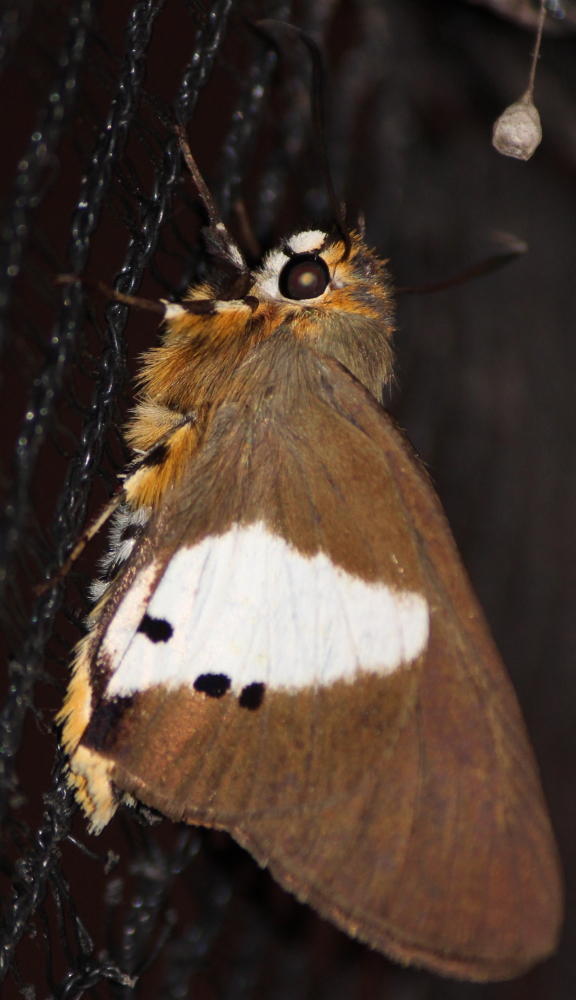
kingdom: Animalia
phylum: Arthropoda
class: Insecta
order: Lepidoptera
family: Hesperiidae
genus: Coeliades
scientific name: Coeliades pisistratus
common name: Two-pip policeman
